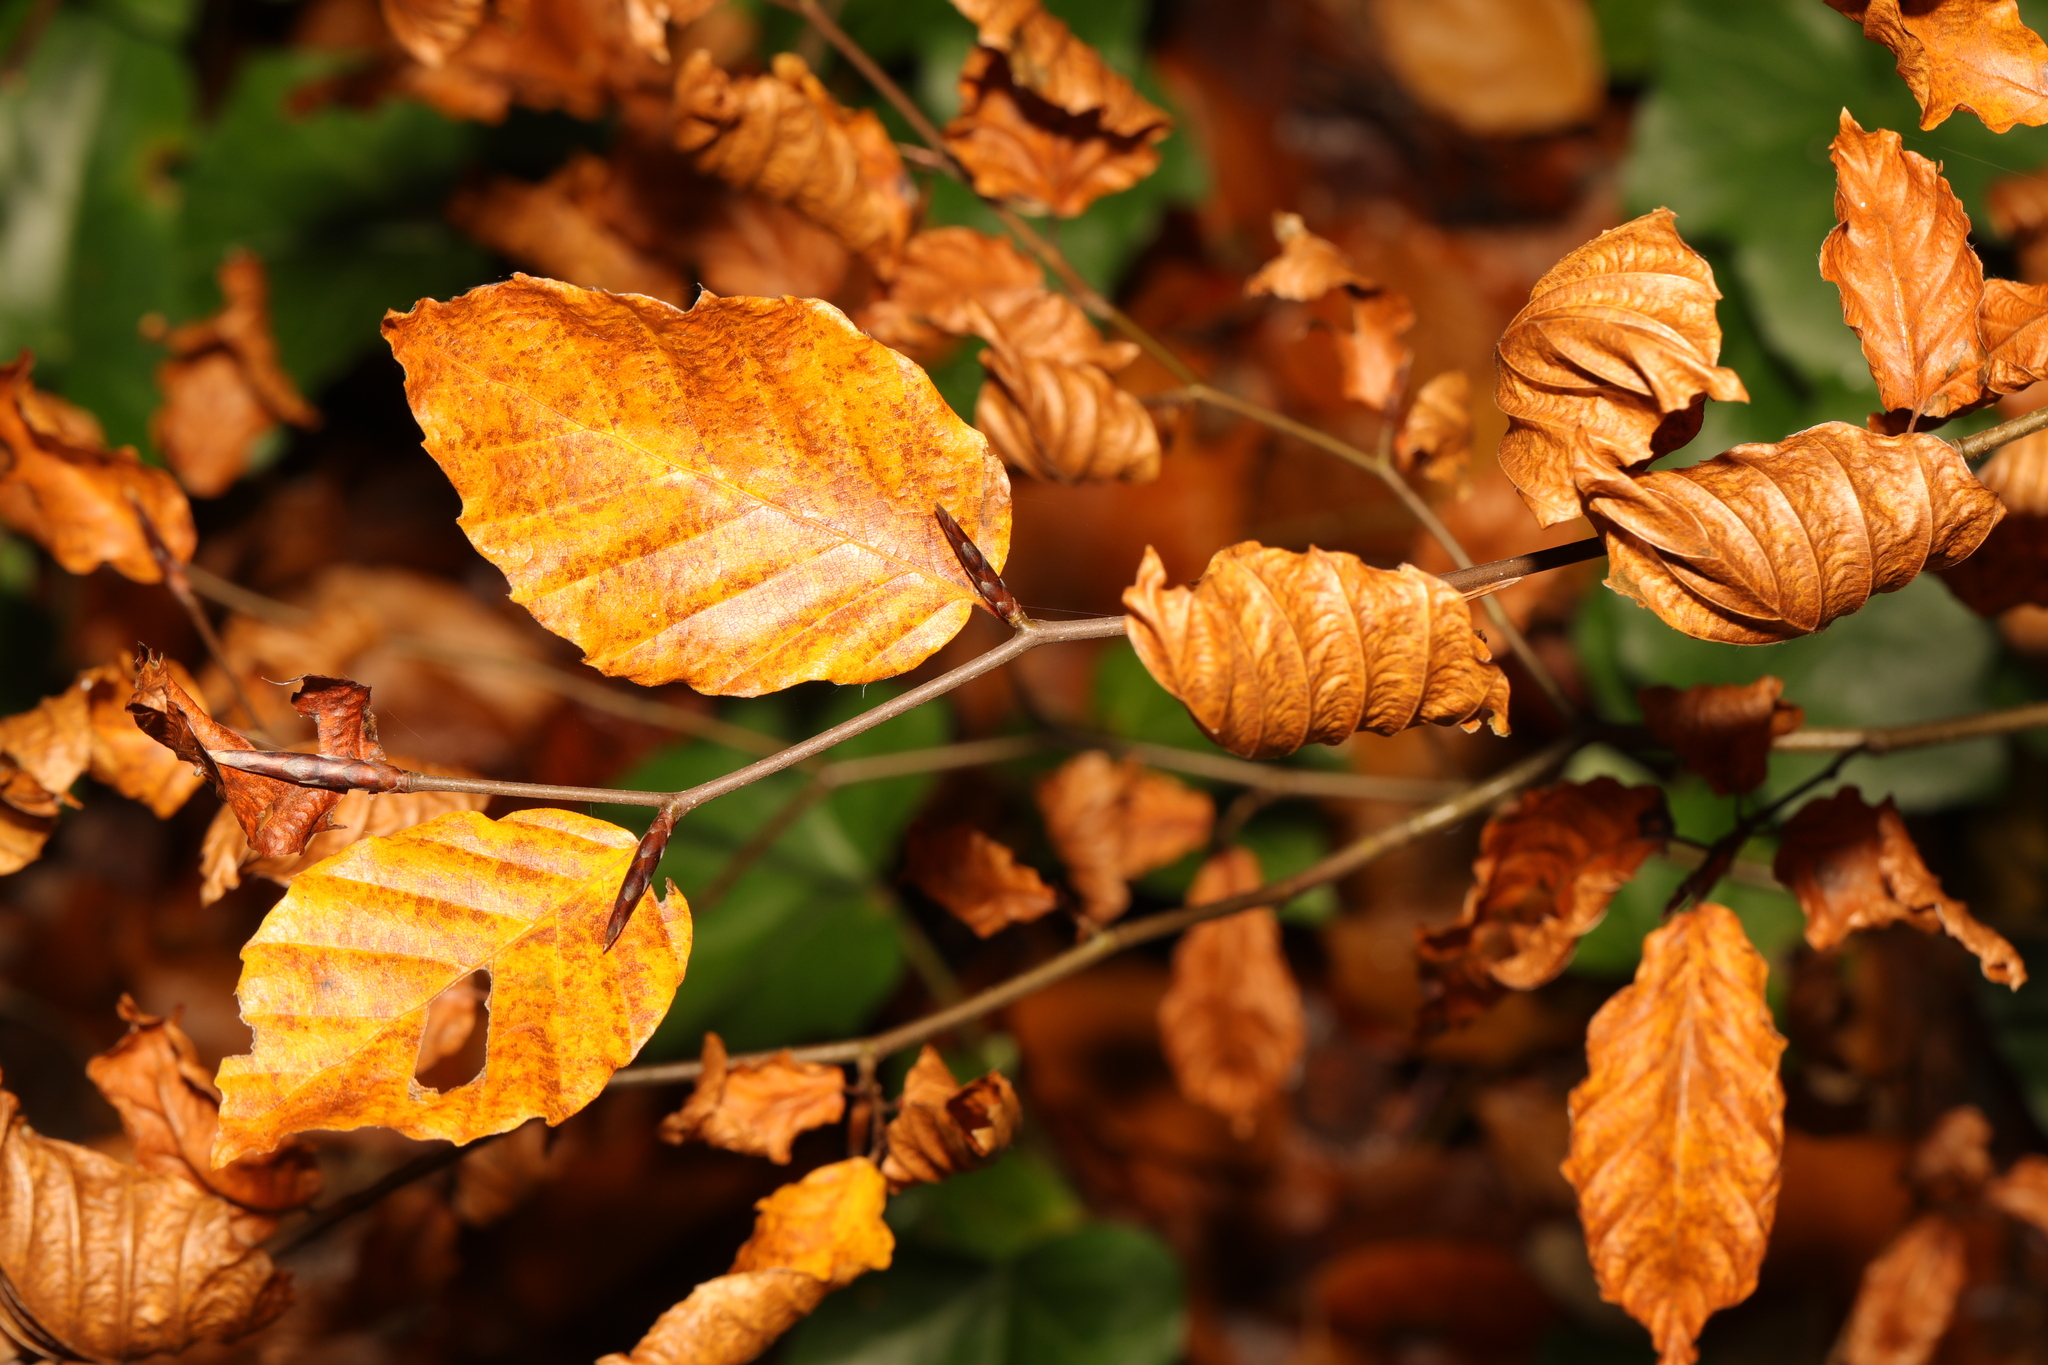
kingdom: Plantae
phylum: Tracheophyta
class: Magnoliopsida
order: Fagales
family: Fagaceae
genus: Fagus
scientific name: Fagus sylvatica
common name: Beech
